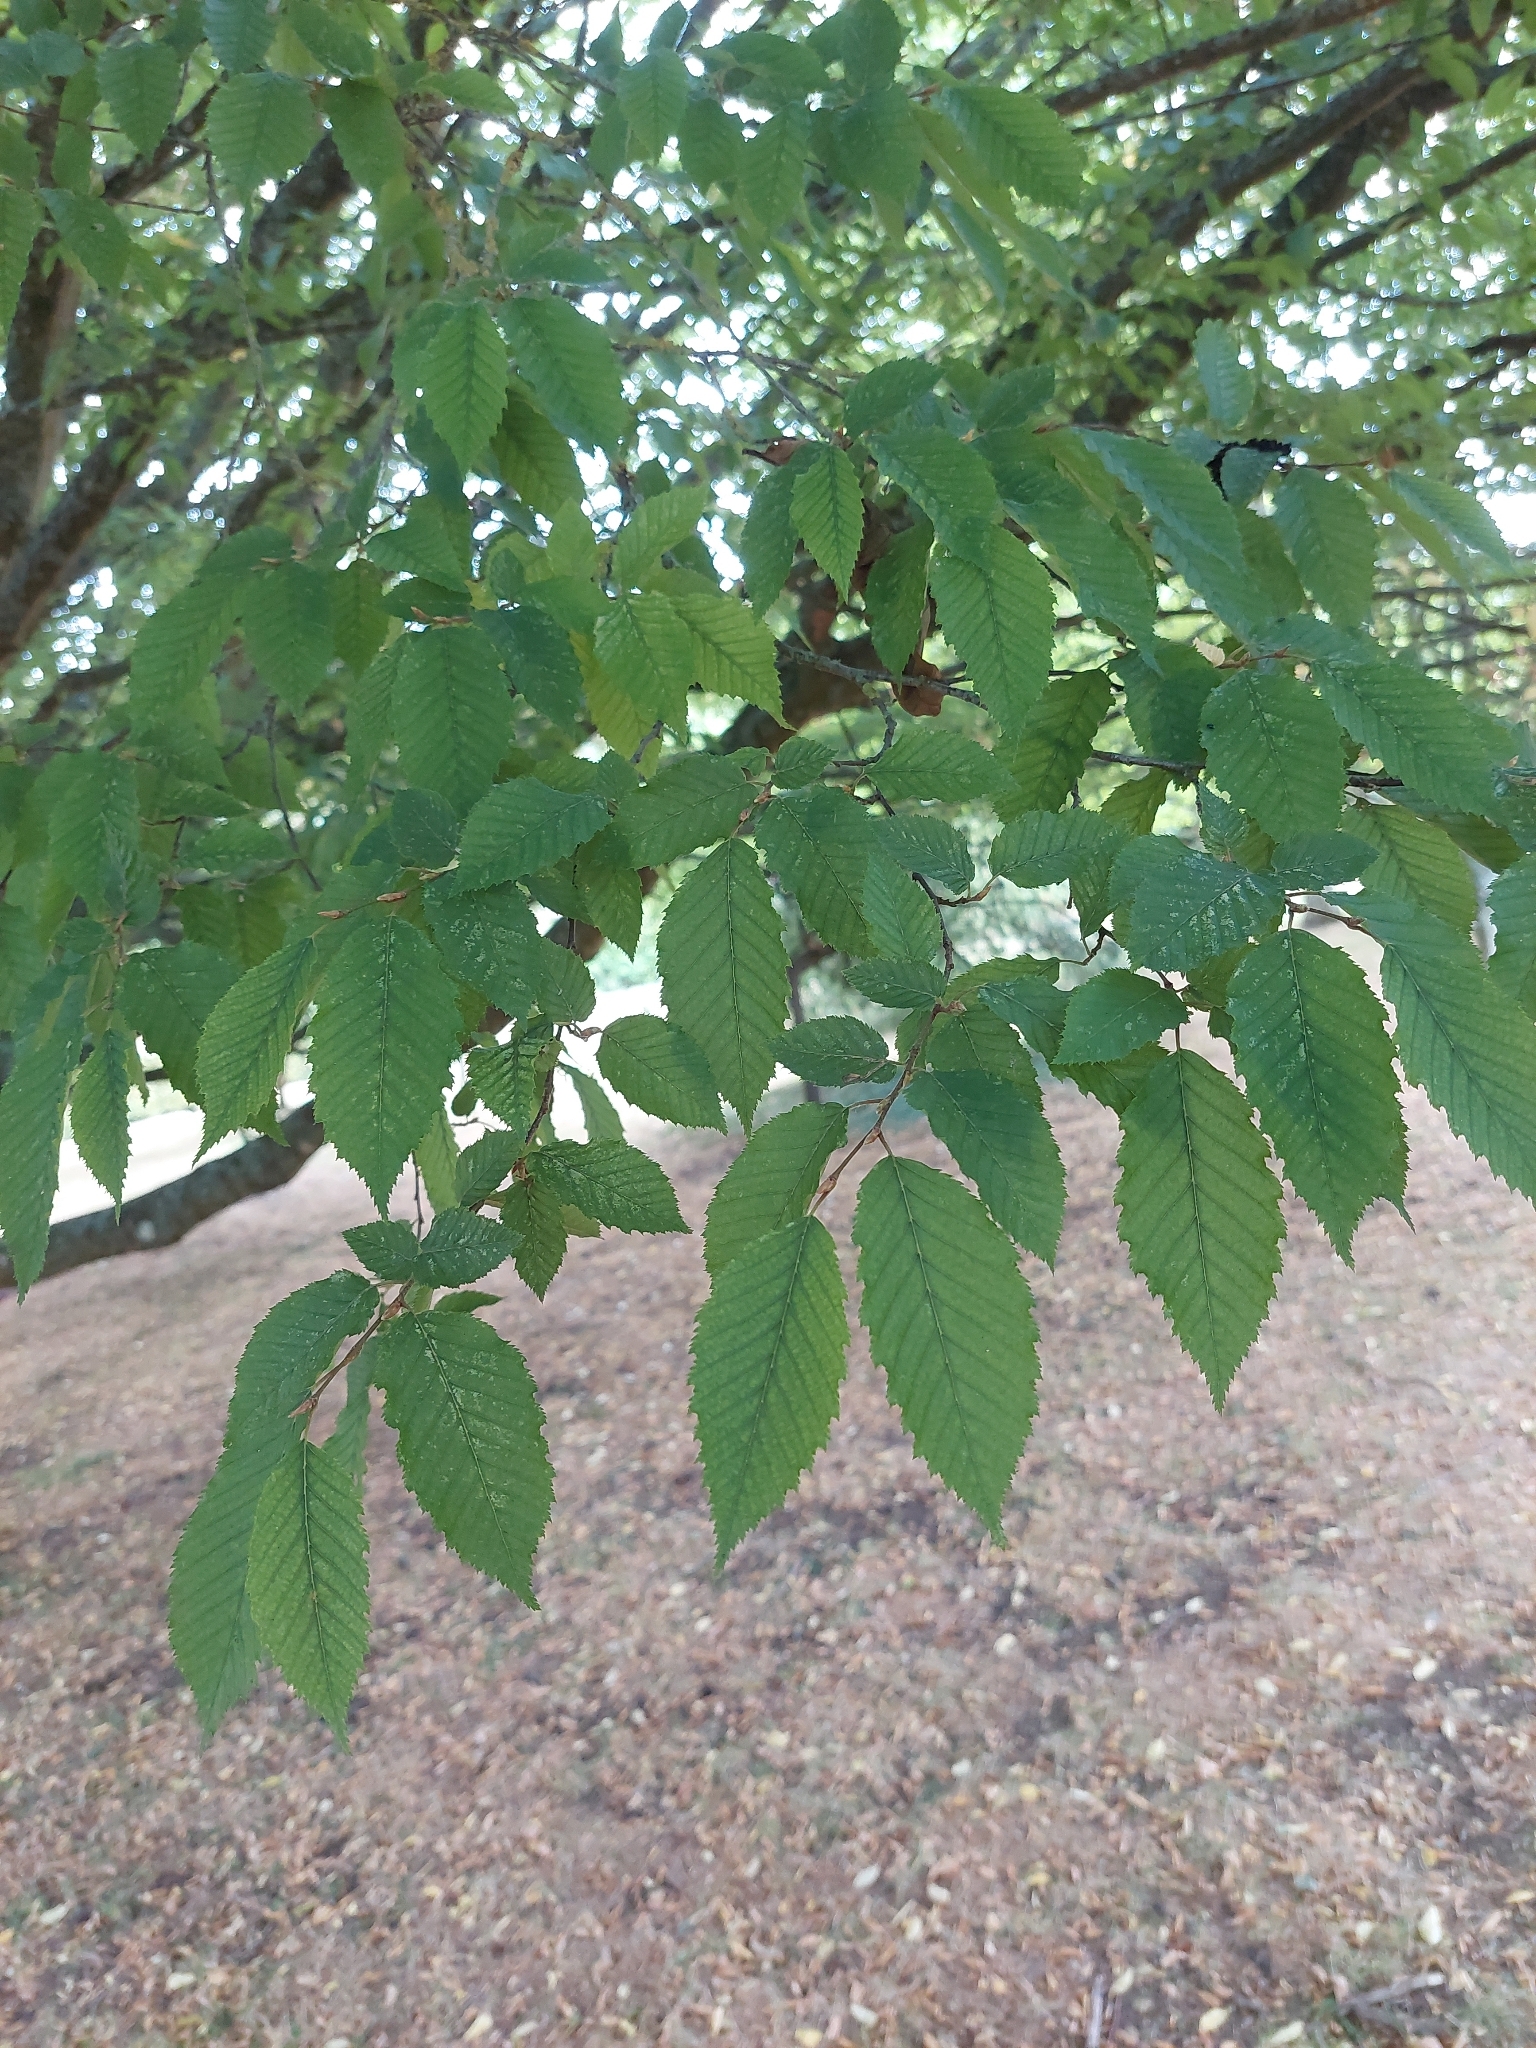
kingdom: Plantae
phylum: Tracheophyta
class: Magnoliopsida
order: Fagales
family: Betulaceae
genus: Carpinus
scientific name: Carpinus betulus
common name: Hornbeam
